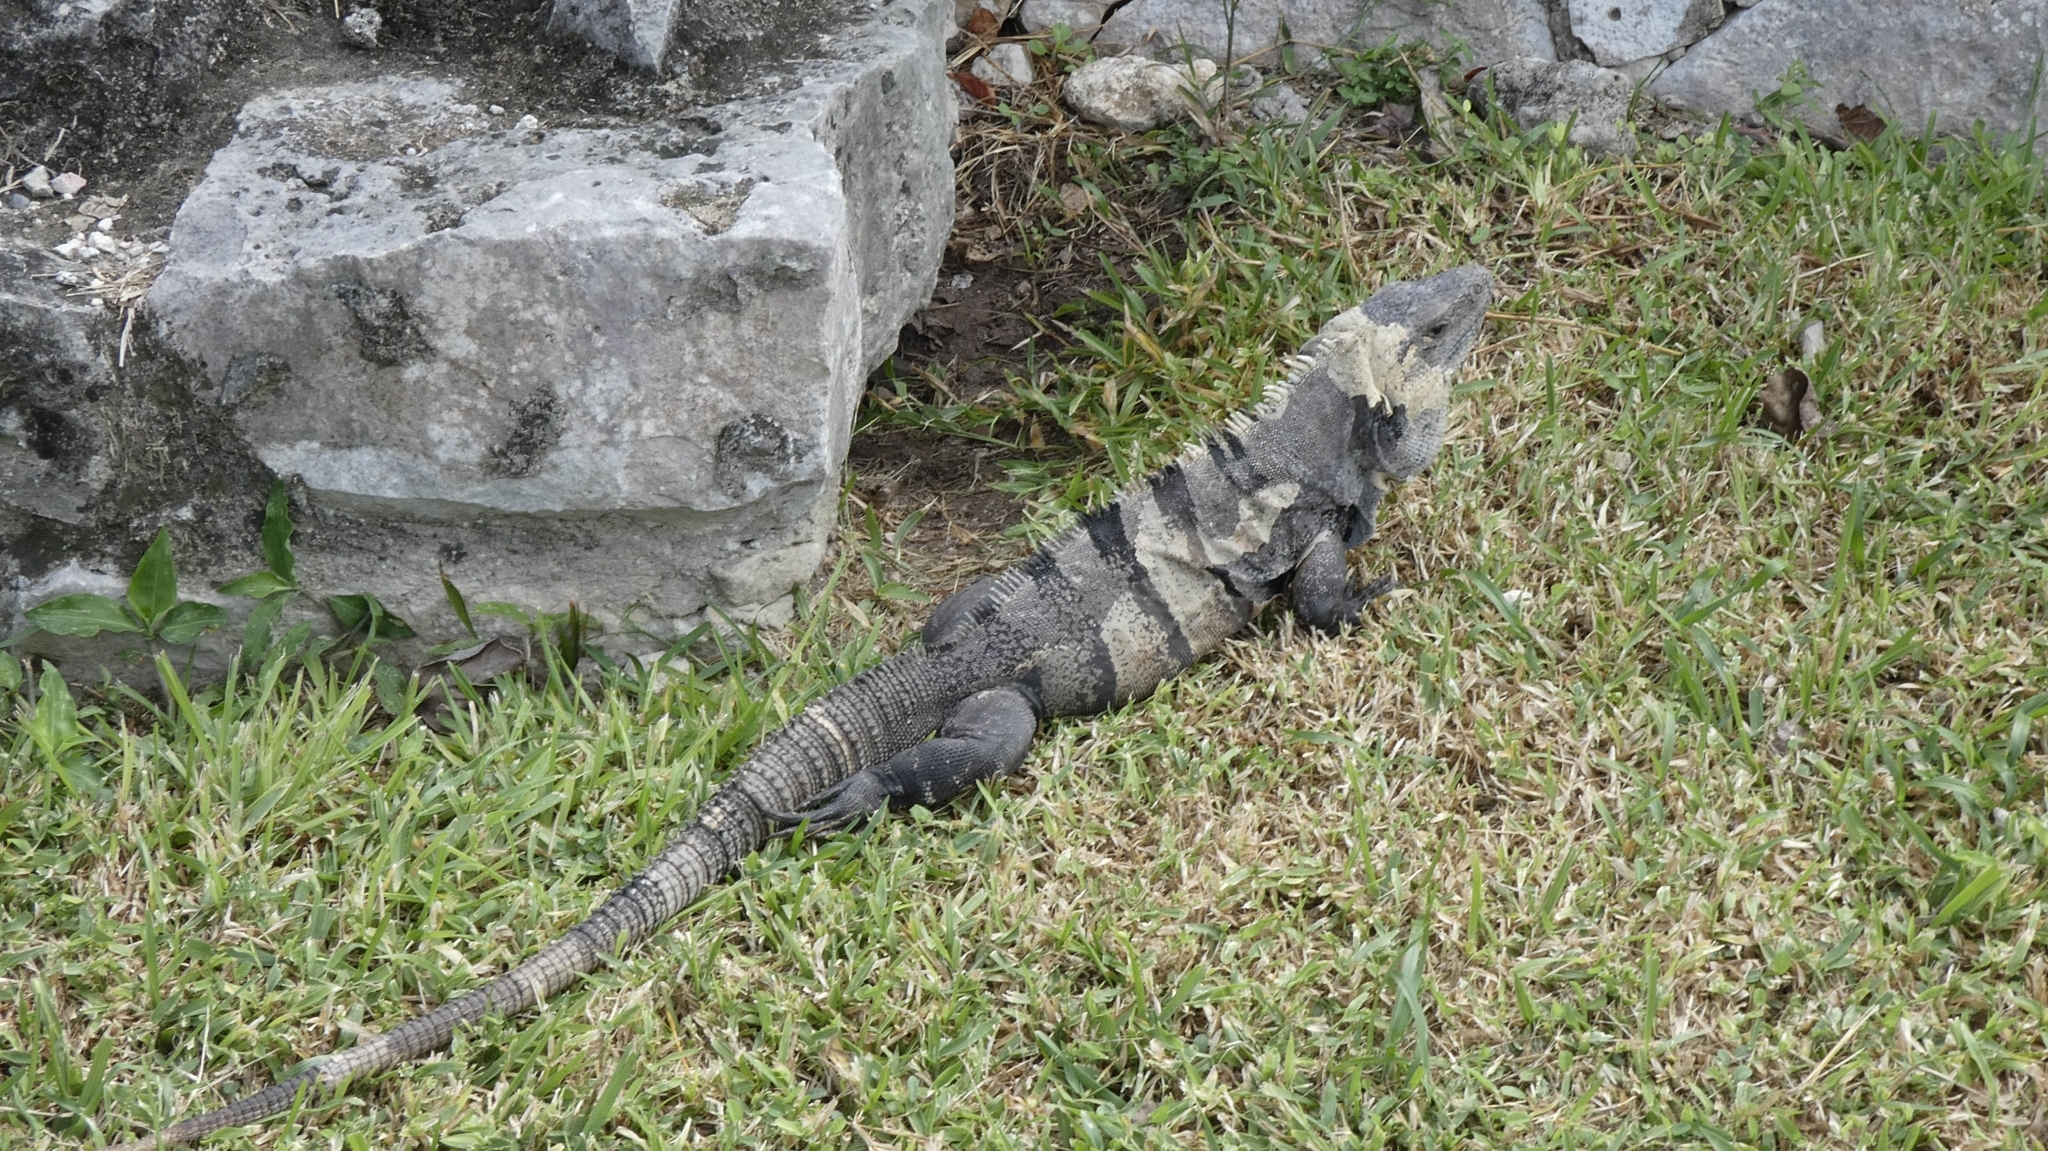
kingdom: Animalia
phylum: Chordata
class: Squamata
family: Iguanidae
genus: Ctenosaura
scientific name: Ctenosaura similis
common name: Black spiny-tailed iguana
